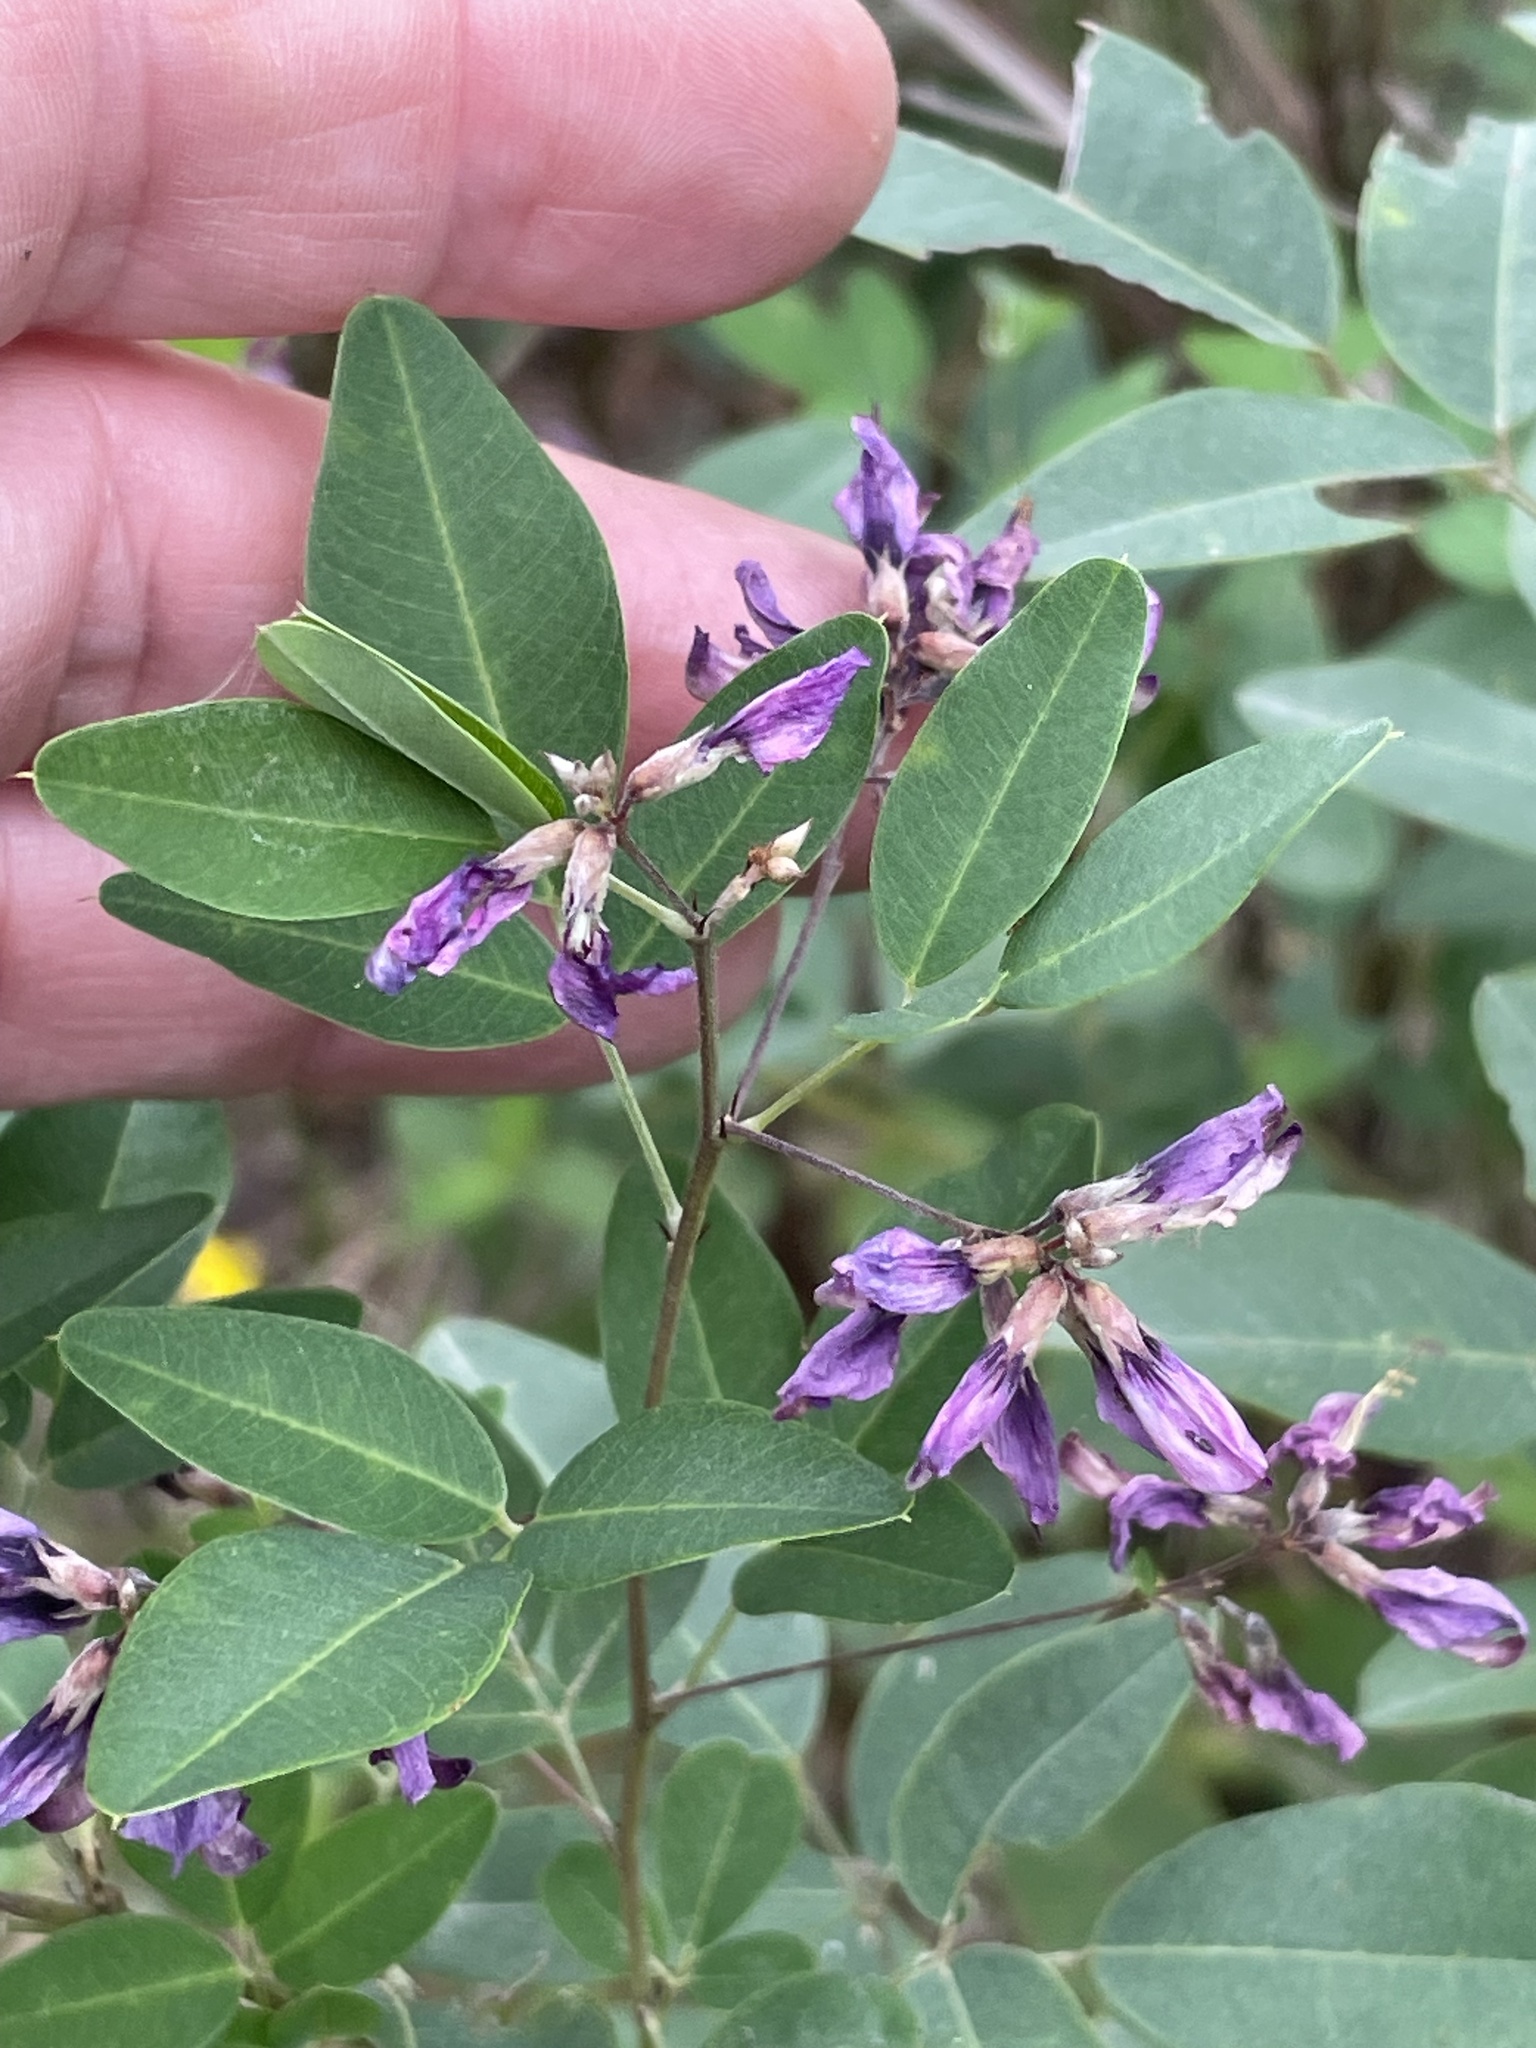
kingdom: Plantae
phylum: Tracheophyta
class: Magnoliopsida
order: Fabales
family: Fabaceae
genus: Lespedeza
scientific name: Lespedeza bicolor
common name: Shrub lespedeza
